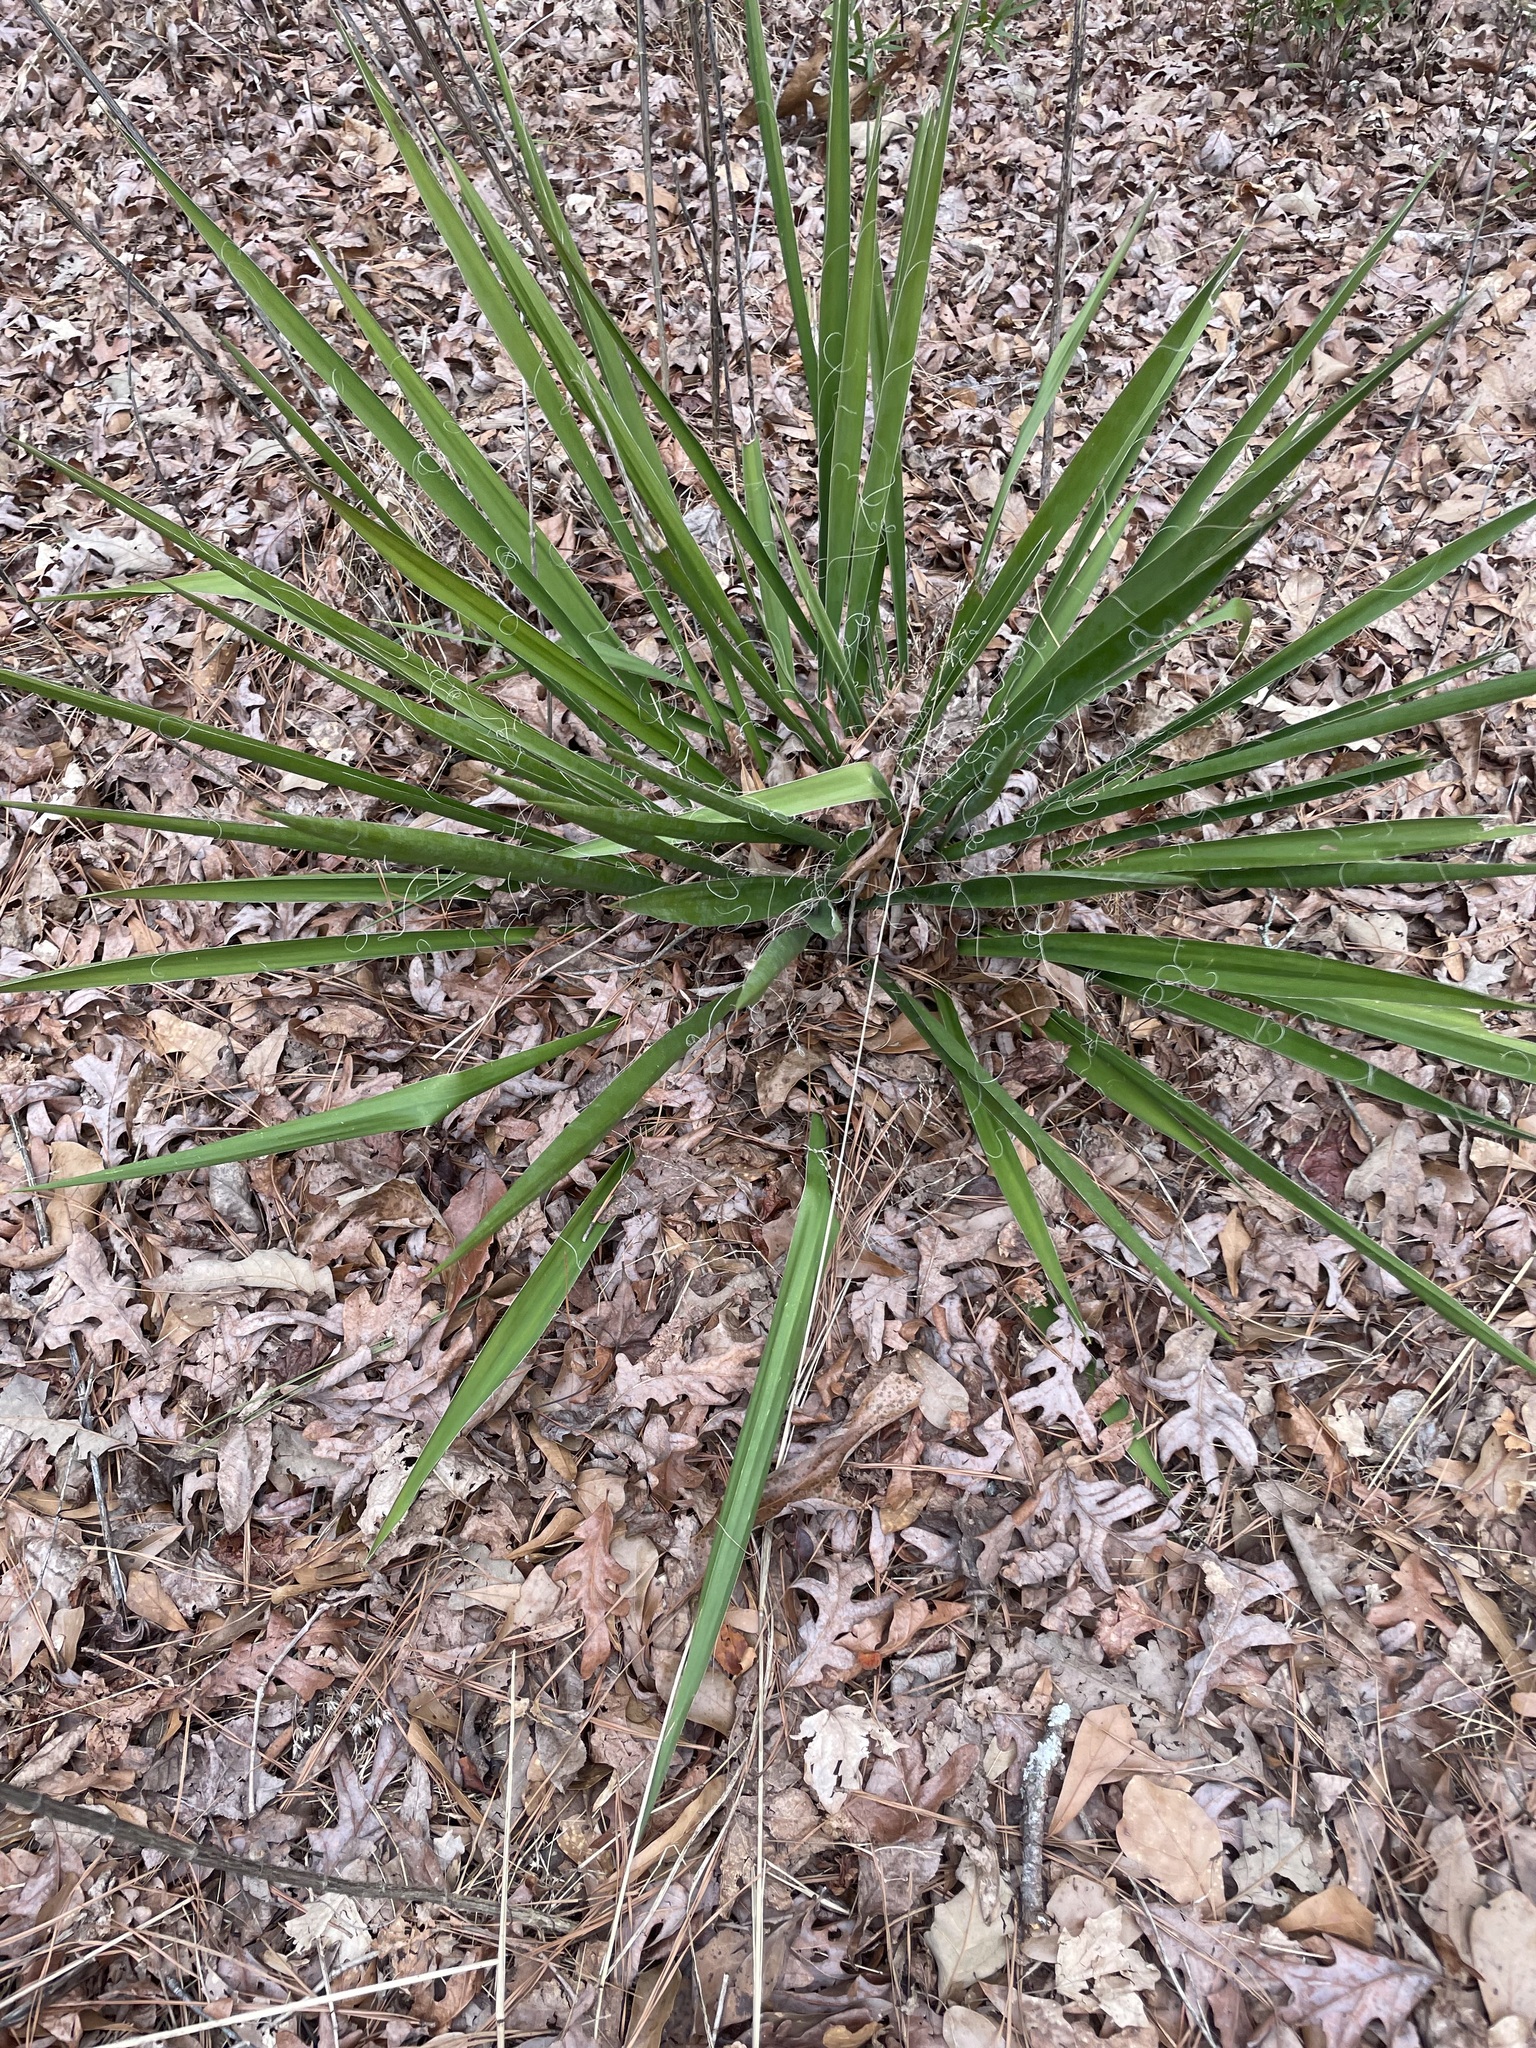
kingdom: Plantae
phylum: Tracheophyta
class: Liliopsida
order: Asparagales
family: Asparagaceae
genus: Yucca
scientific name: Yucca filamentosa
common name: Adam's-needle
